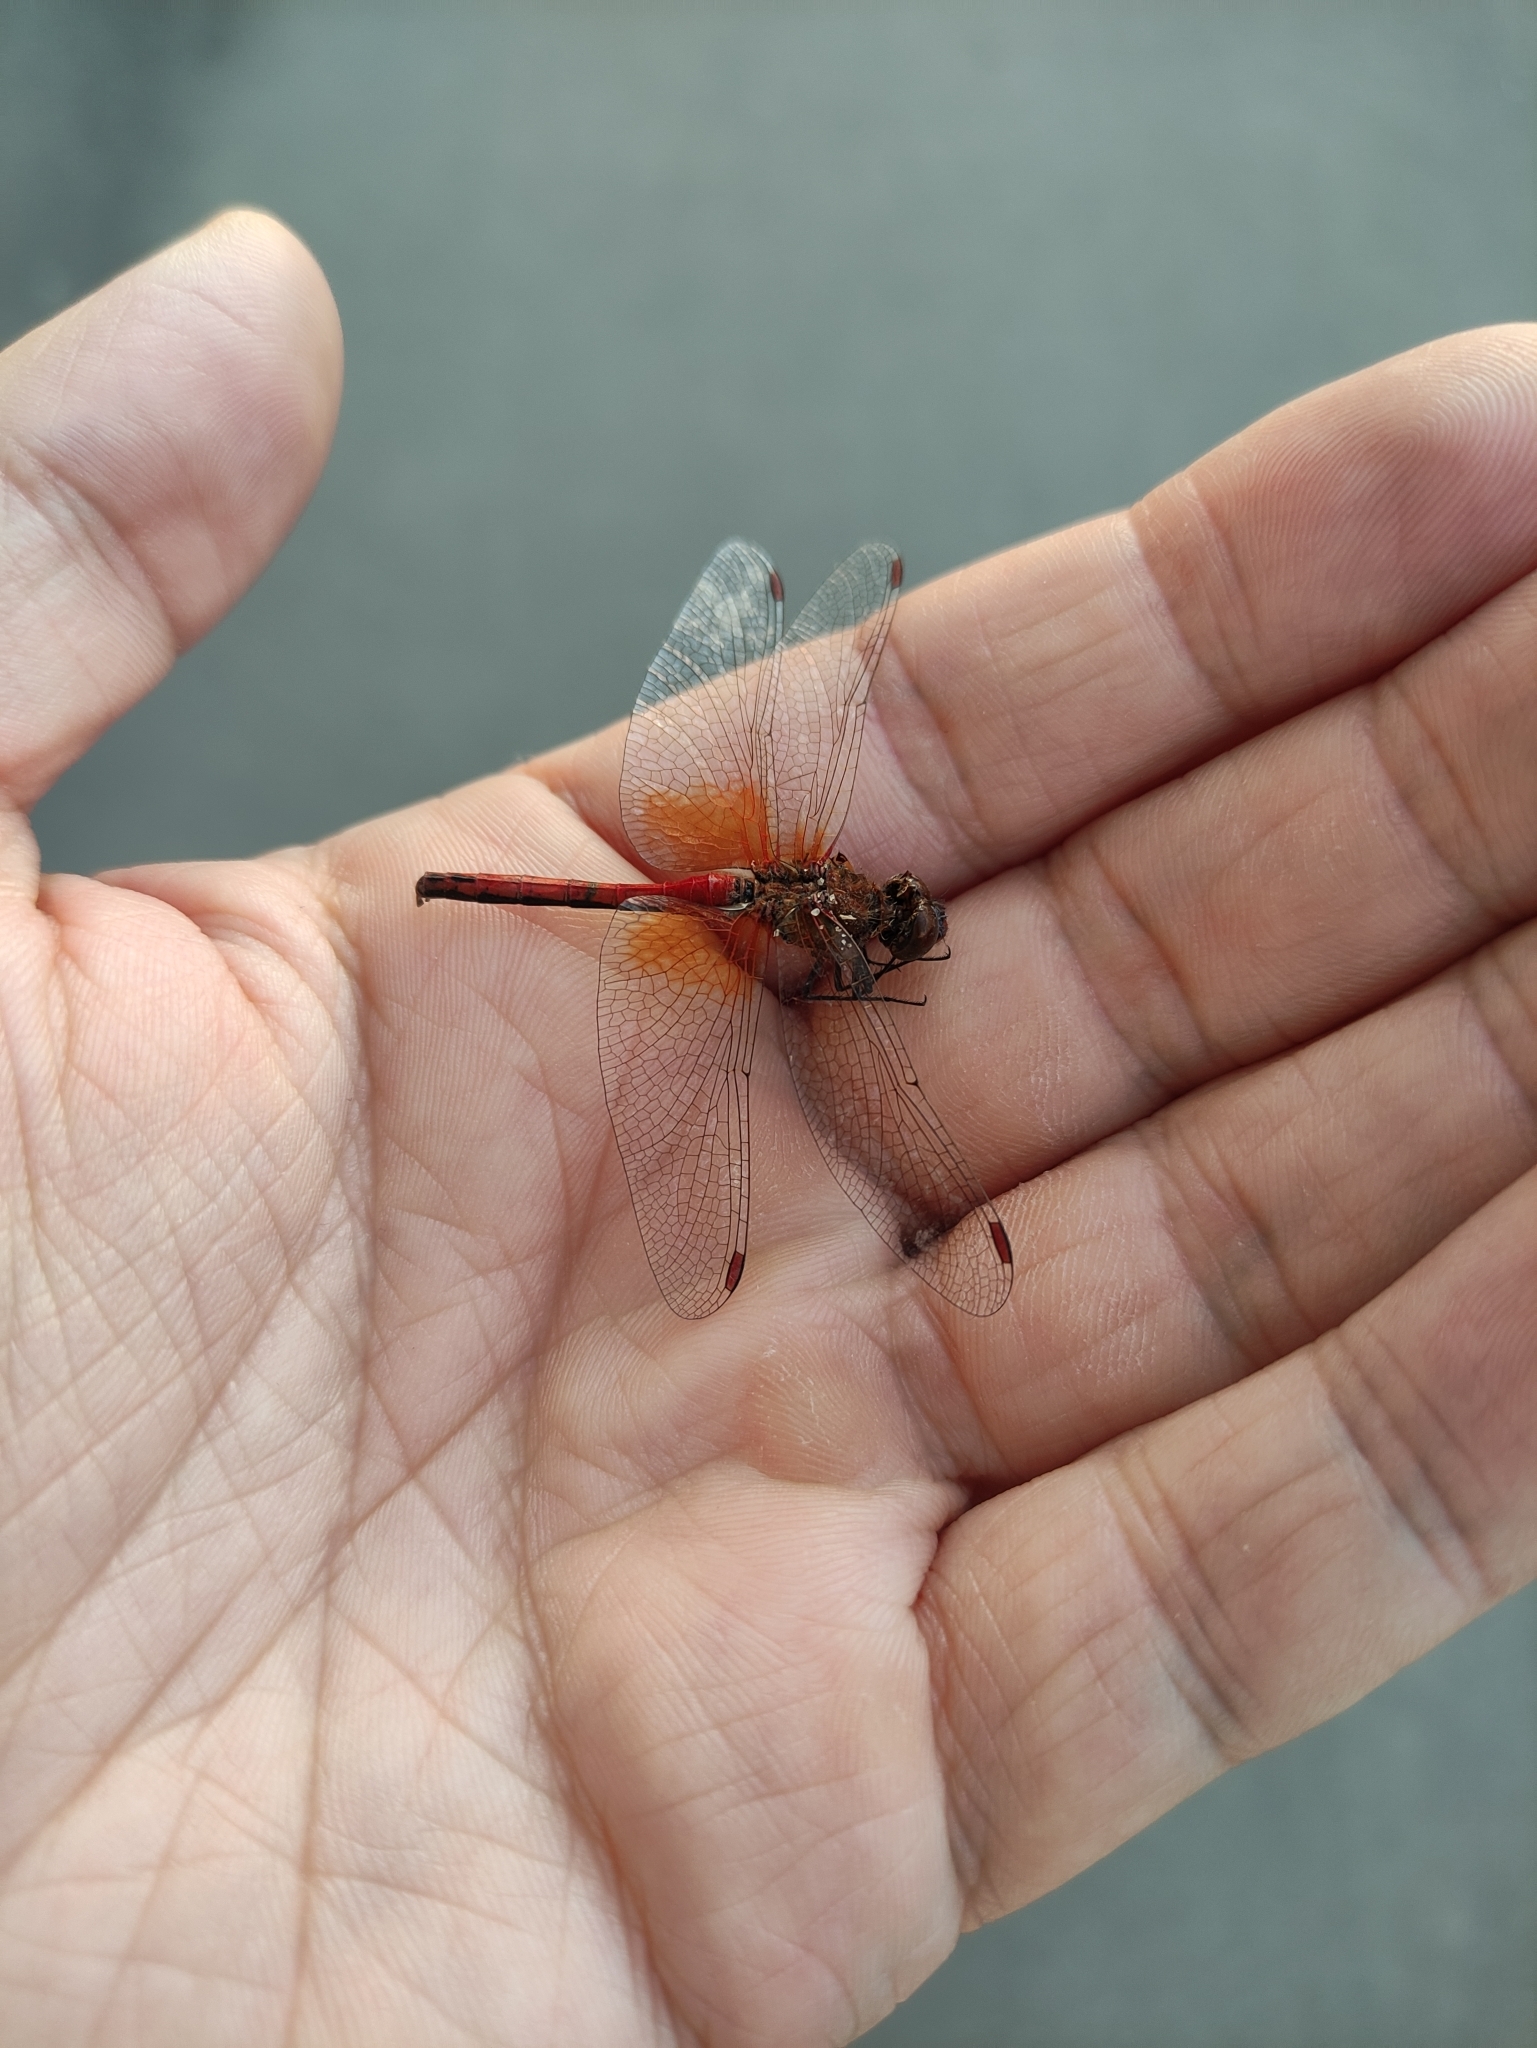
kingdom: Animalia
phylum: Arthropoda
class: Insecta
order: Odonata
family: Libellulidae
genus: Sympetrum
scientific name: Sympetrum flaveolum
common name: Yellow-winged darter
